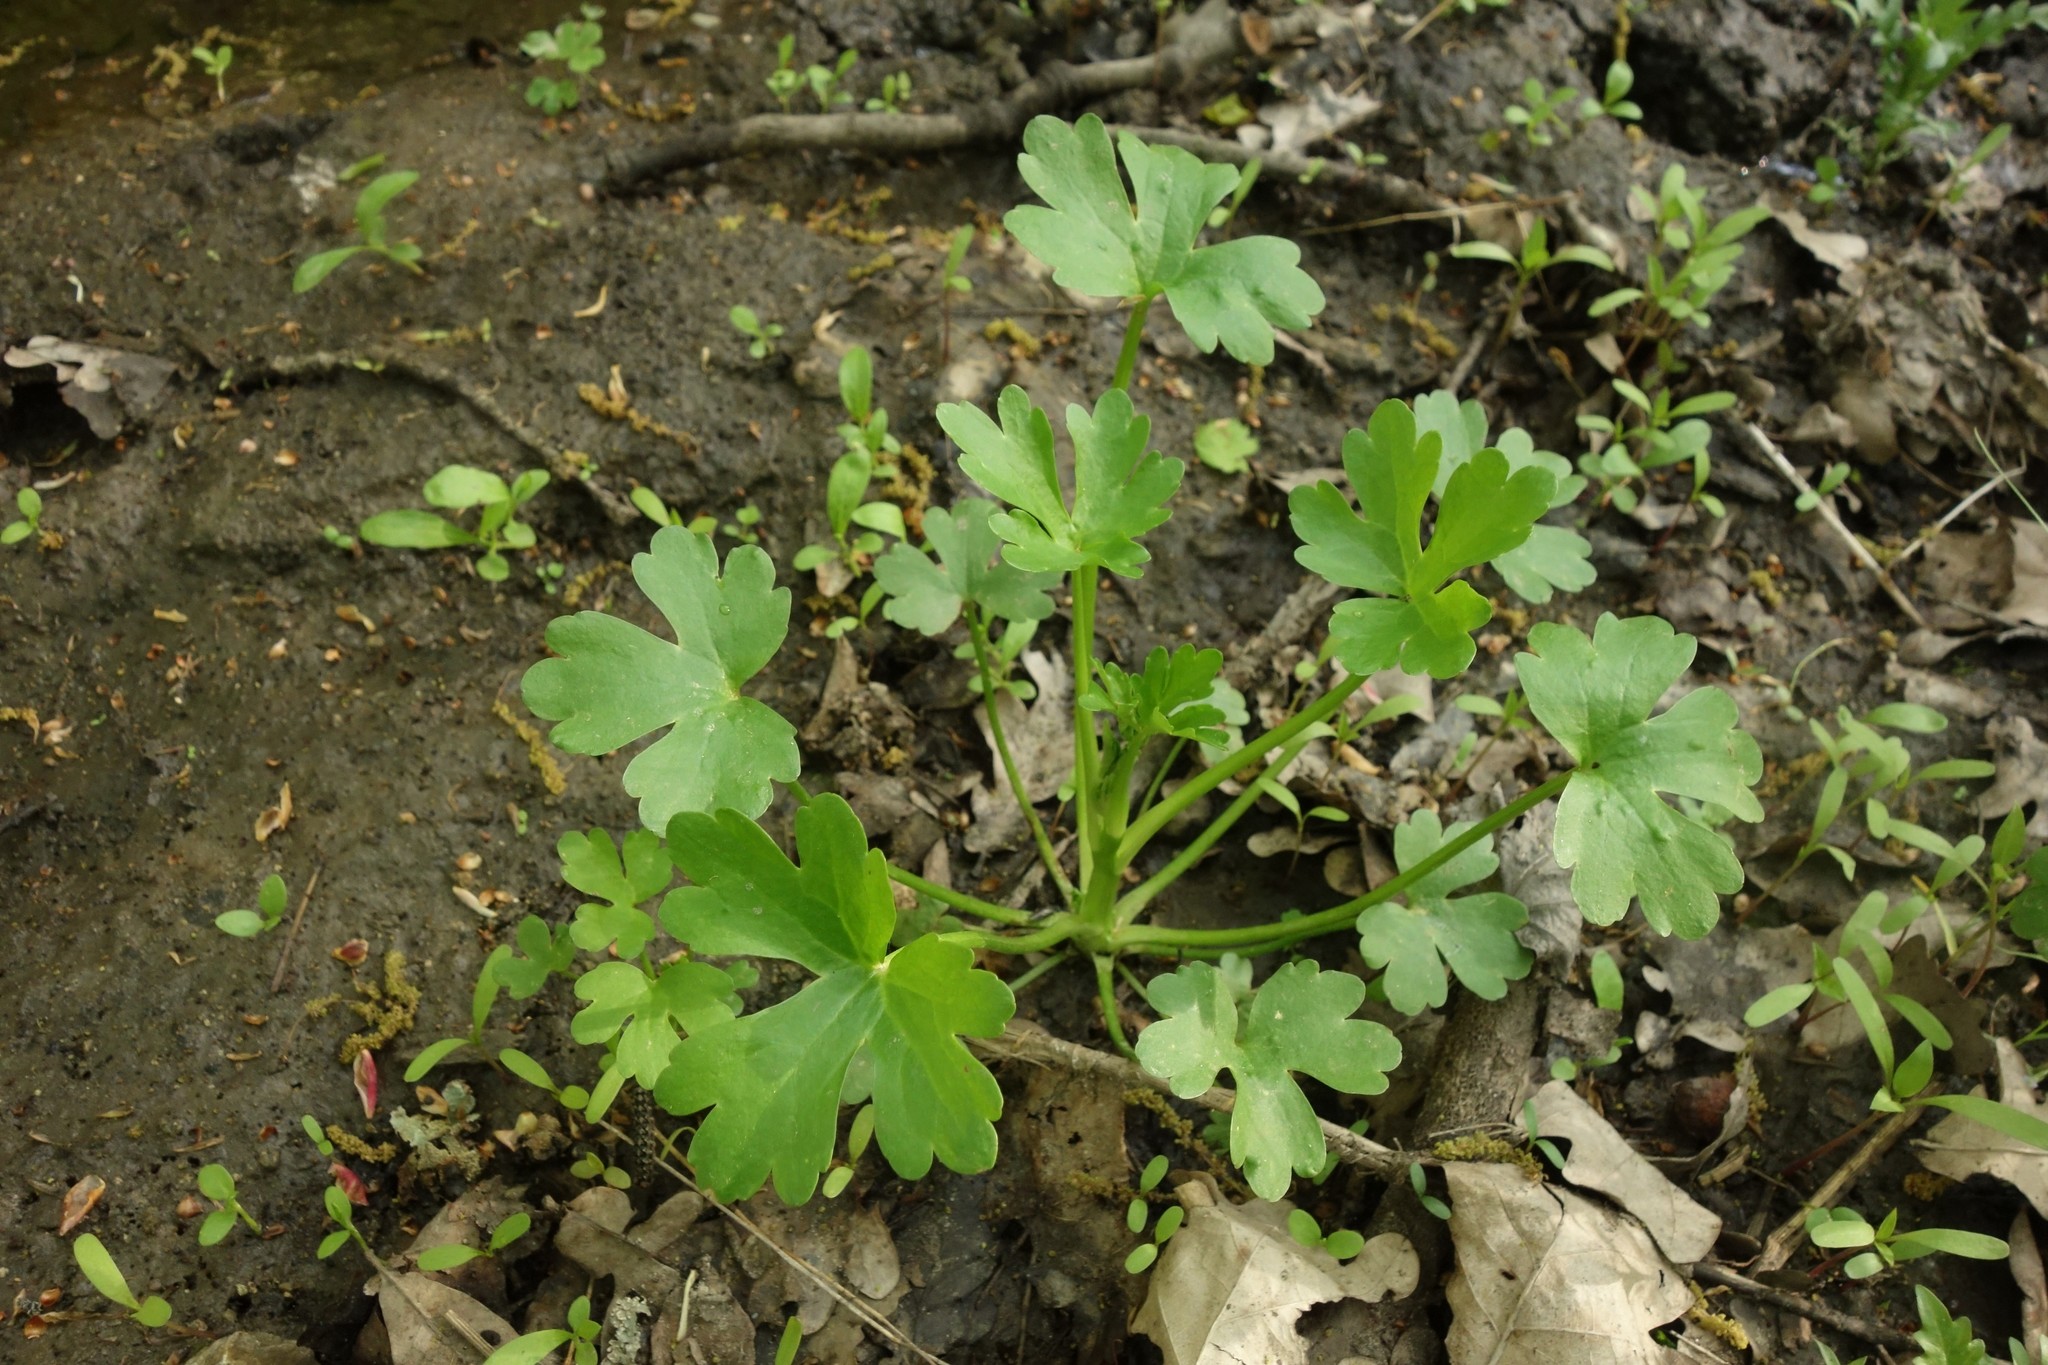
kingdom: Plantae
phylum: Tracheophyta
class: Magnoliopsida
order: Ranunculales
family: Ranunculaceae
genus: Ranunculus
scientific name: Ranunculus sceleratus
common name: Celery-leaved buttercup
